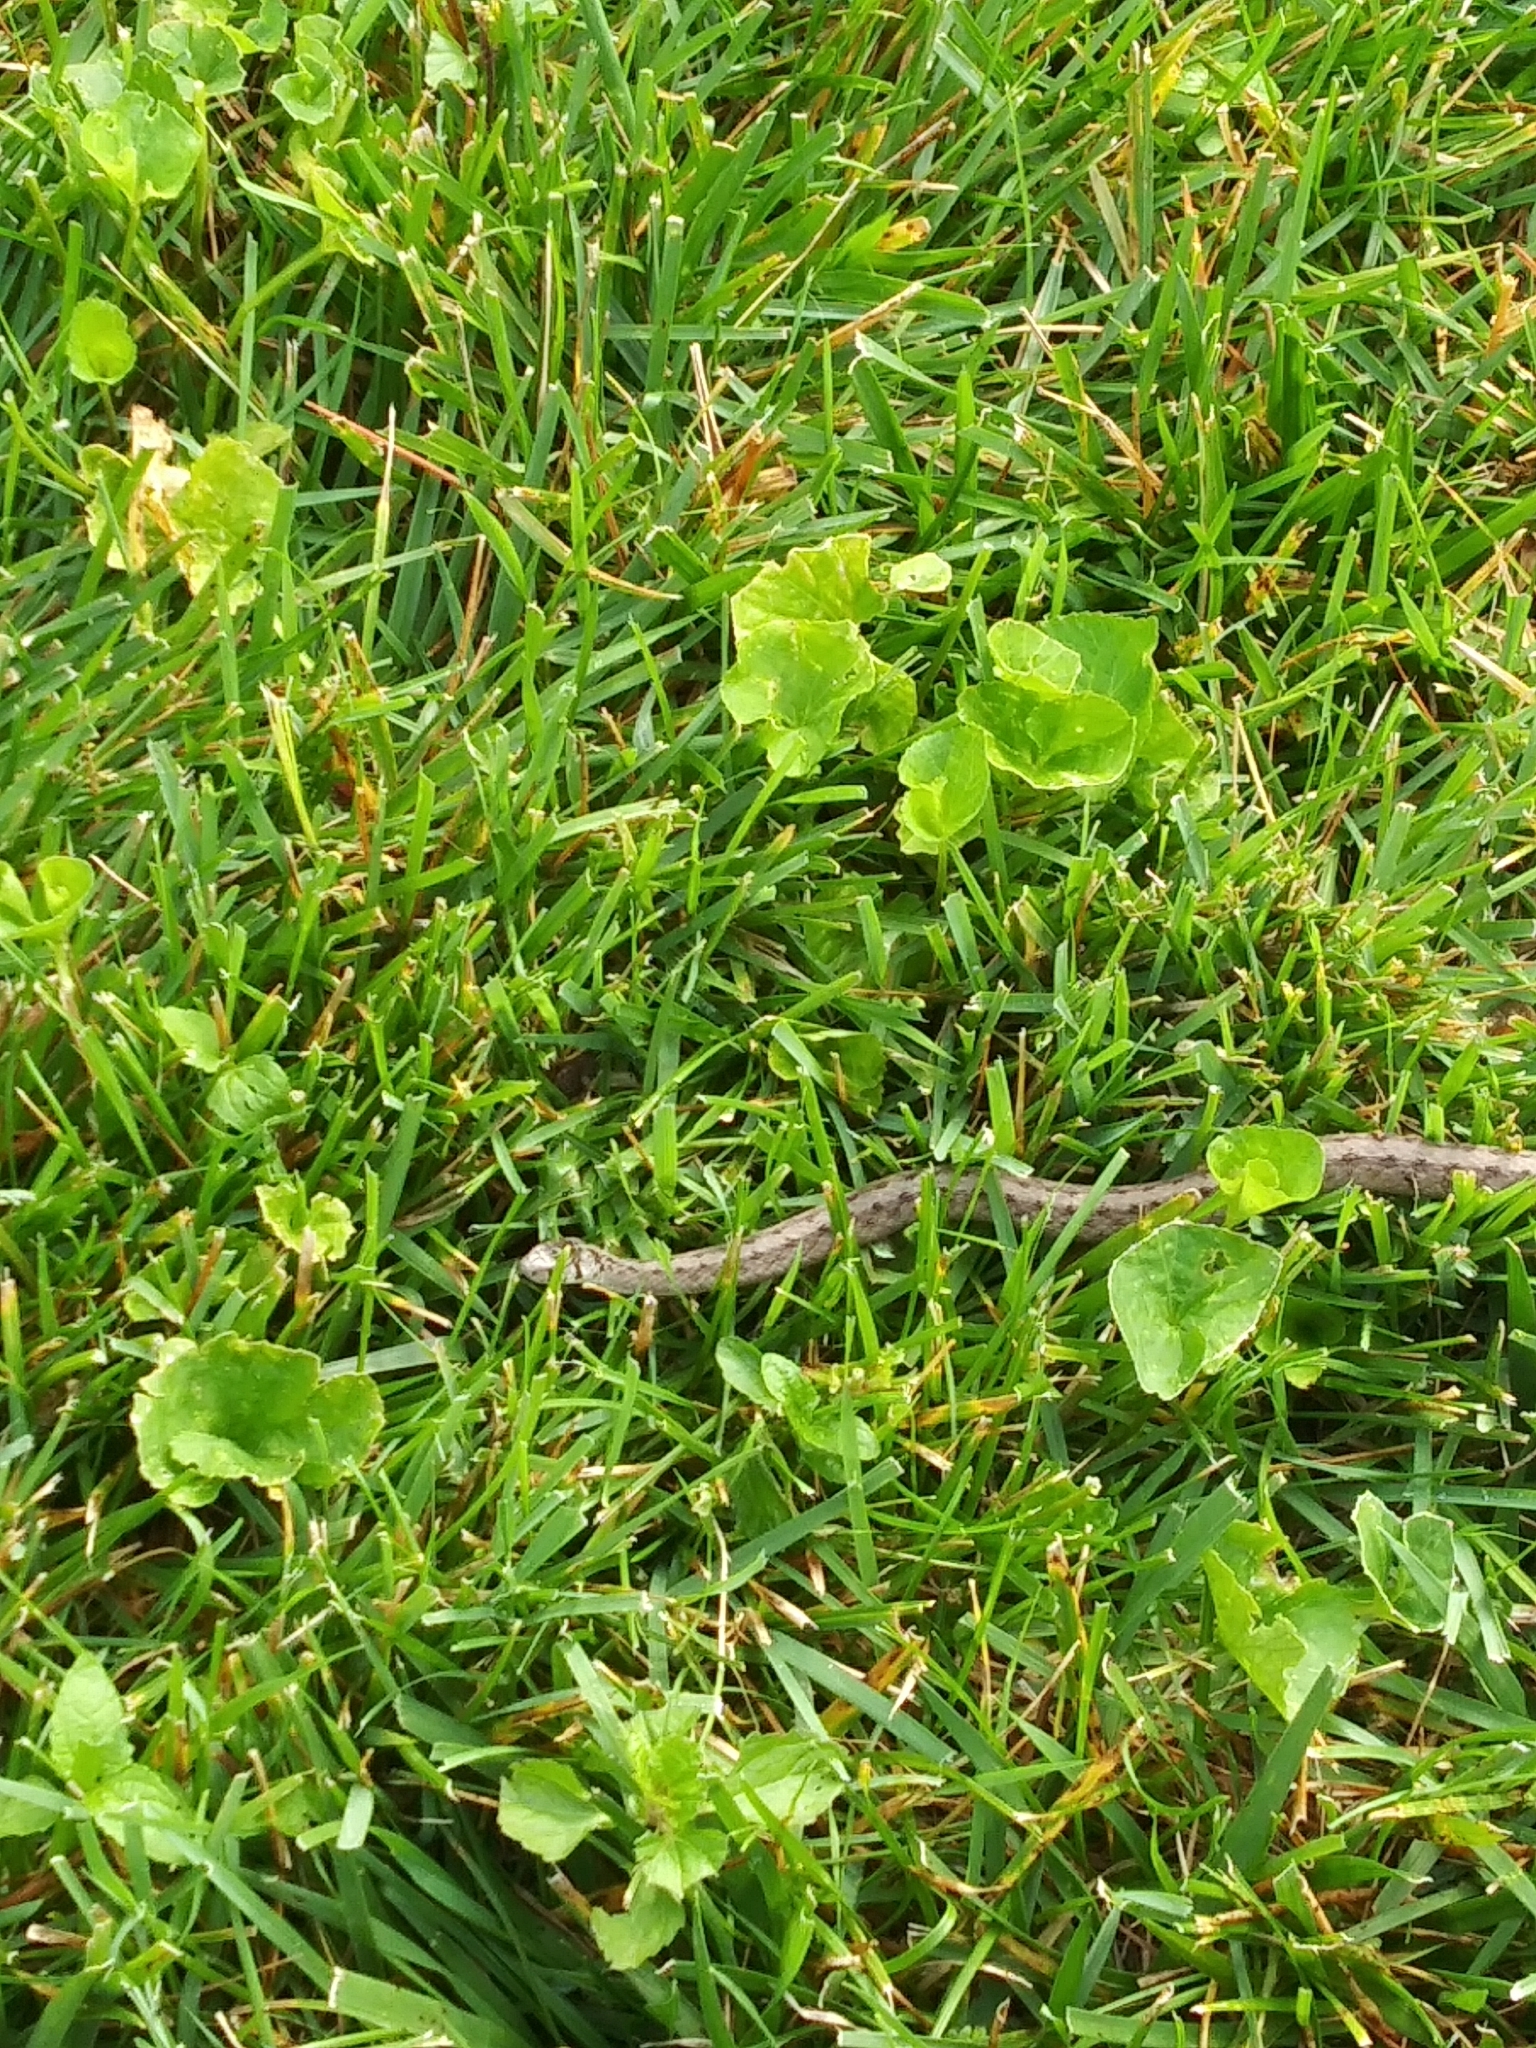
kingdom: Animalia
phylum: Chordata
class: Squamata
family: Colubridae
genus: Storeria
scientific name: Storeria dekayi
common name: (dekay’s) brown snake
